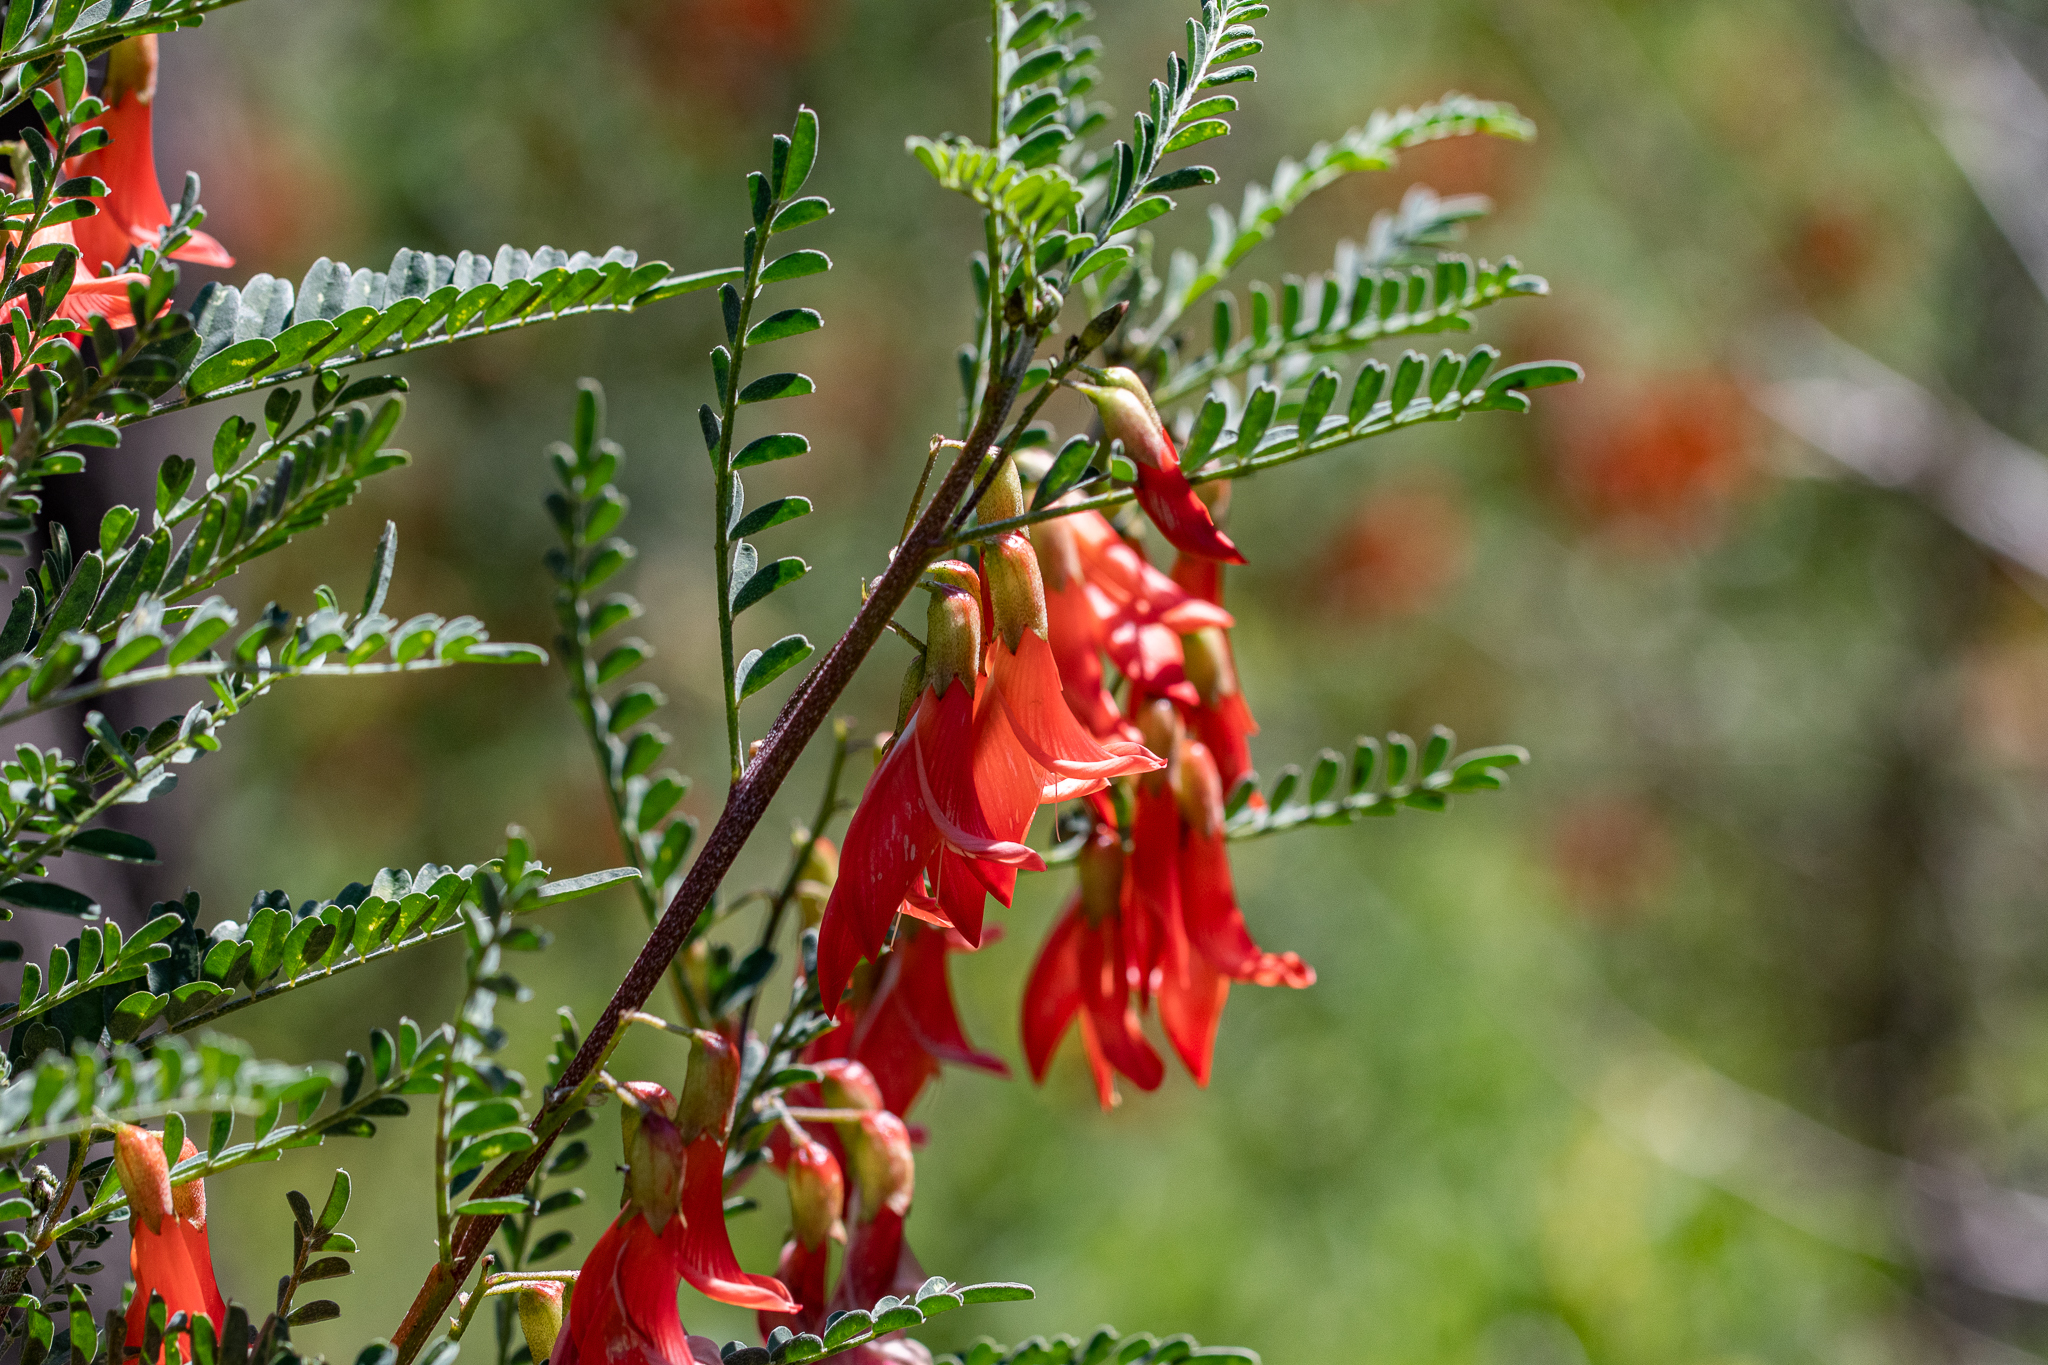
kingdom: Plantae
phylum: Tracheophyta
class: Magnoliopsida
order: Fabales
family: Fabaceae
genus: Lessertia
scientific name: Lessertia frutescens
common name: Balloon-pea
